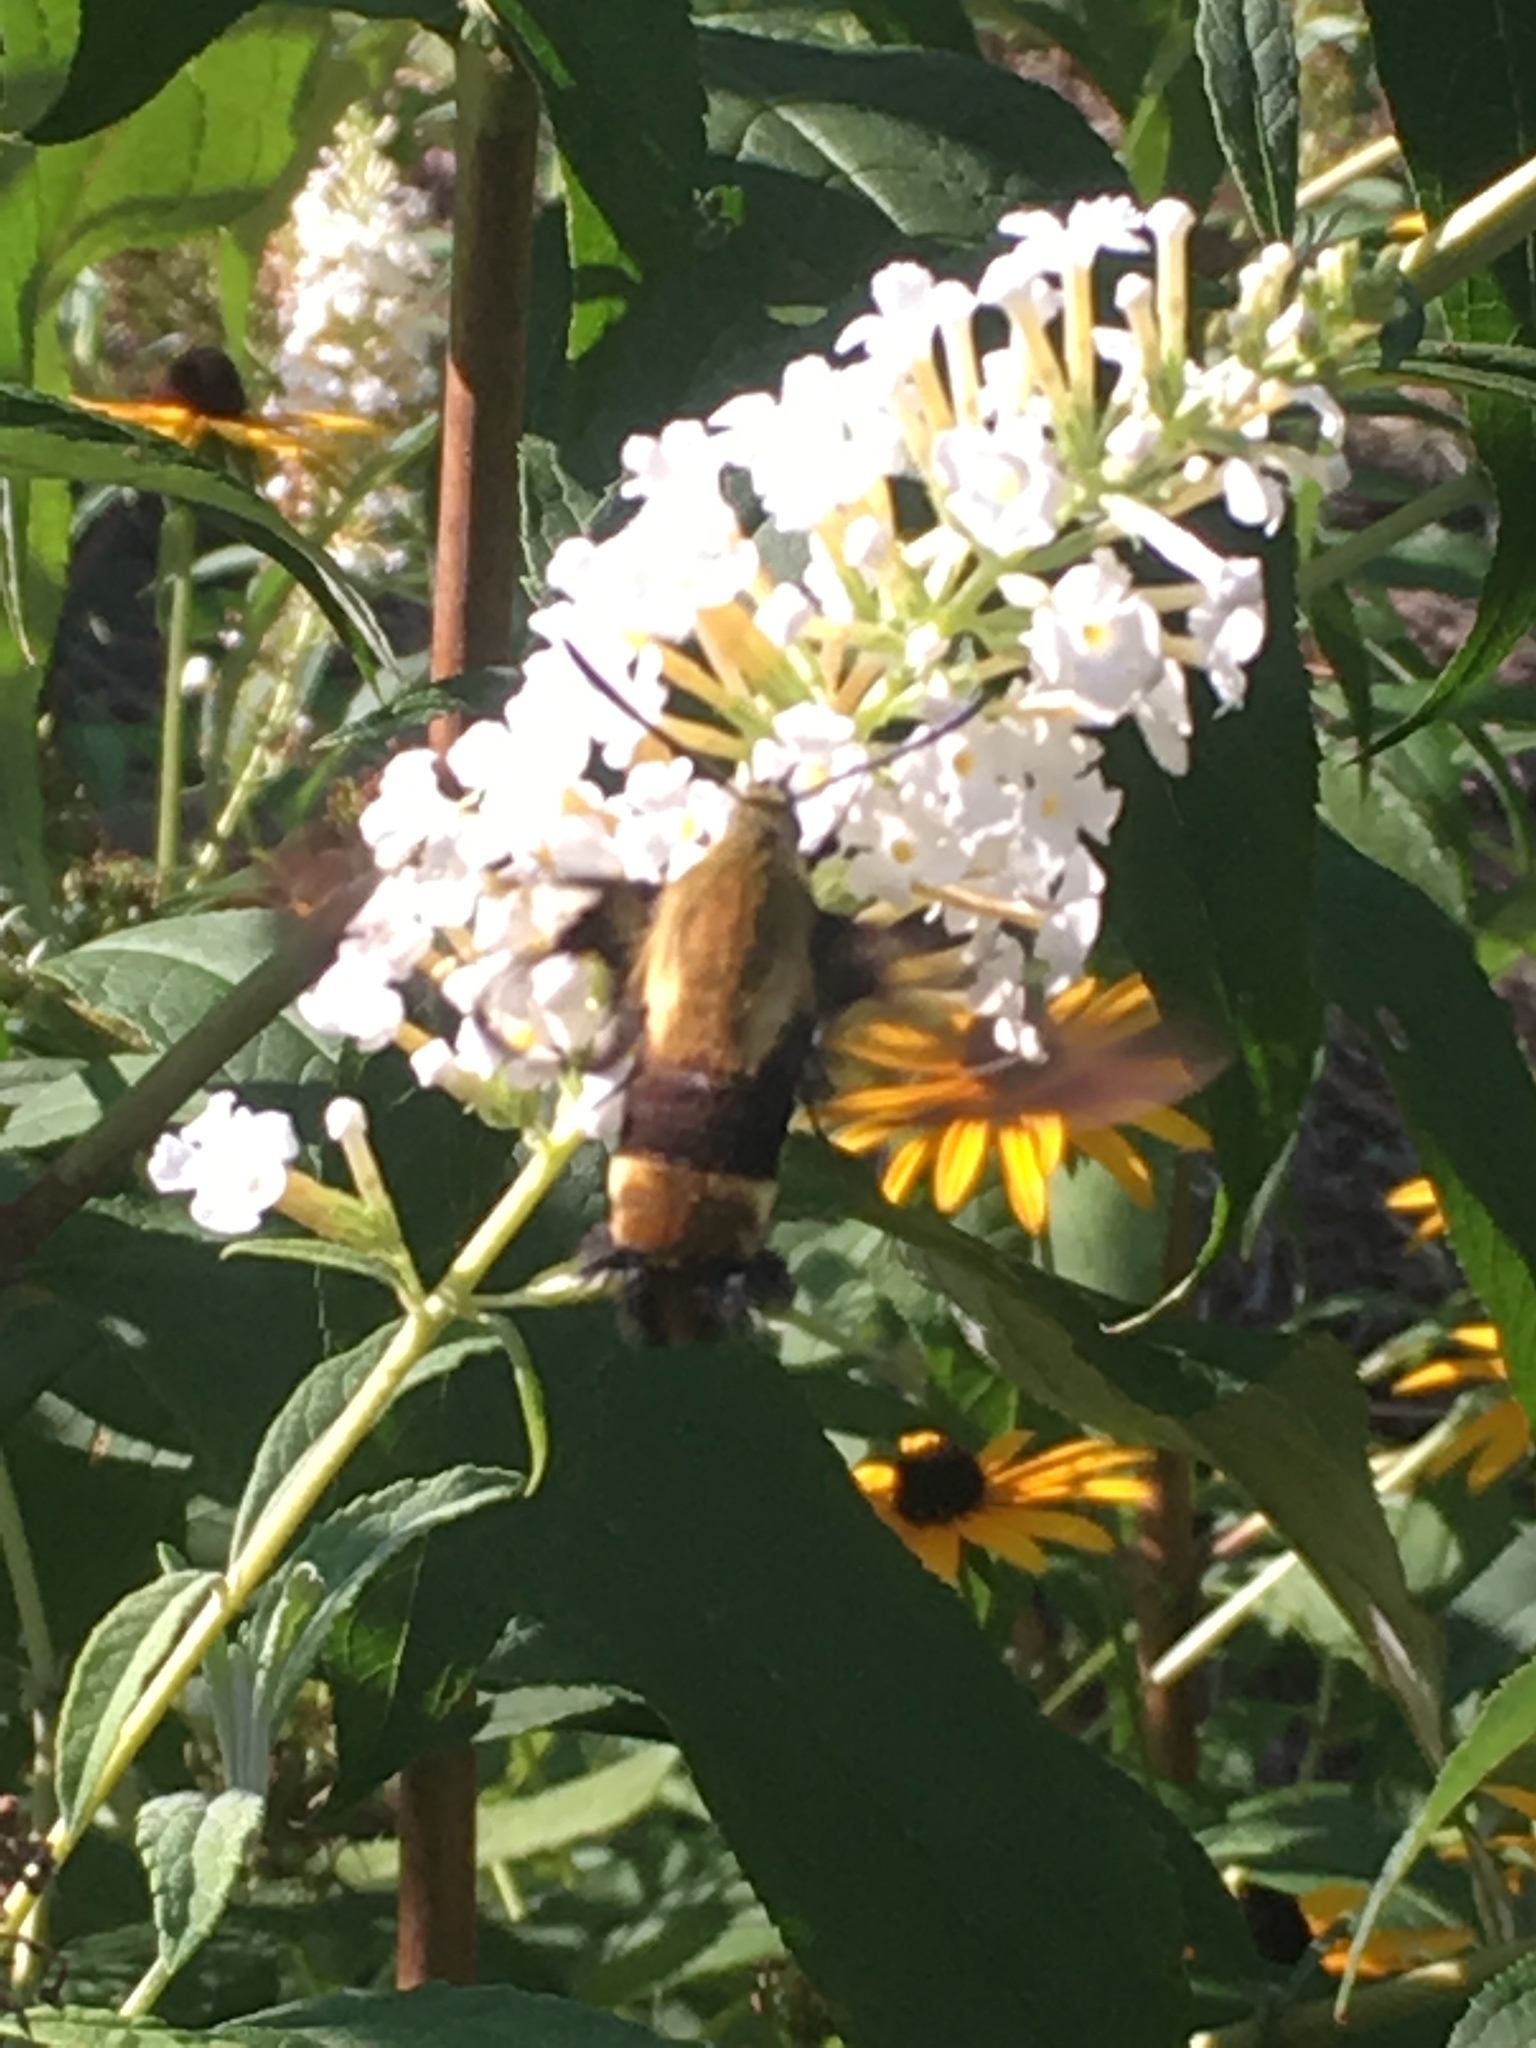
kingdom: Animalia
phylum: Arthropoda
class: Insecta
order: Lepidoptera
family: Sphingidae
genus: Hemaris
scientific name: Hemaris diffinis
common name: Bumblebee moth
